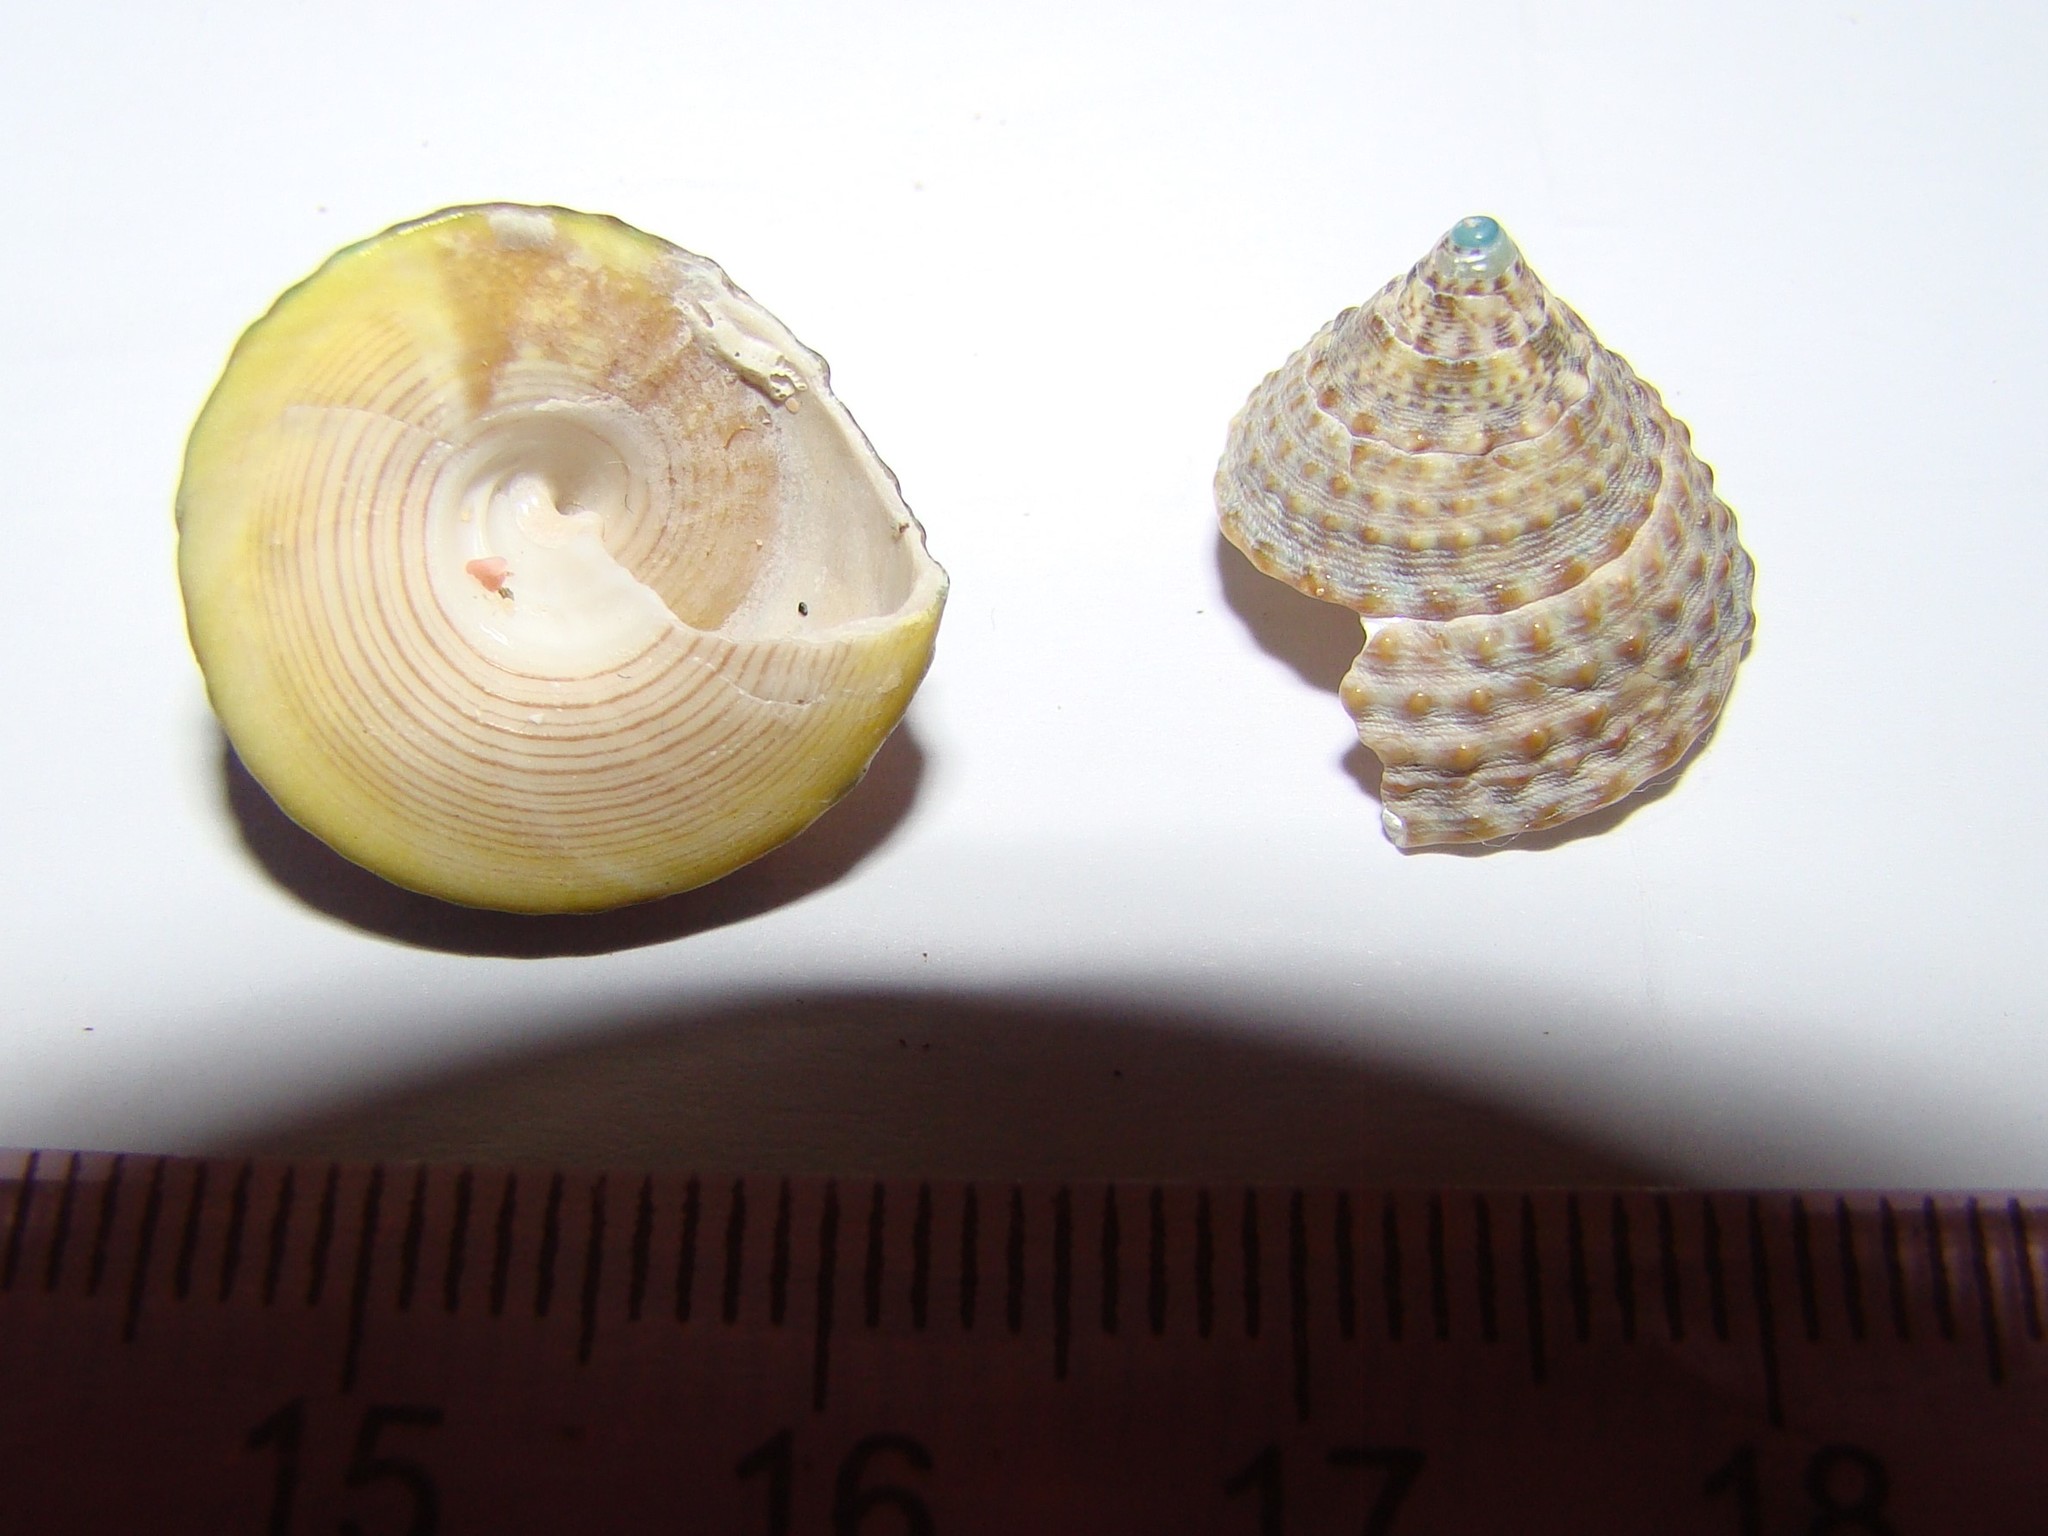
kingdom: Animalia
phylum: Mollusca
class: Gastropoda
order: Trochida
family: Trochidae
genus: Coelotrochus
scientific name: Coelotrochus viridis
